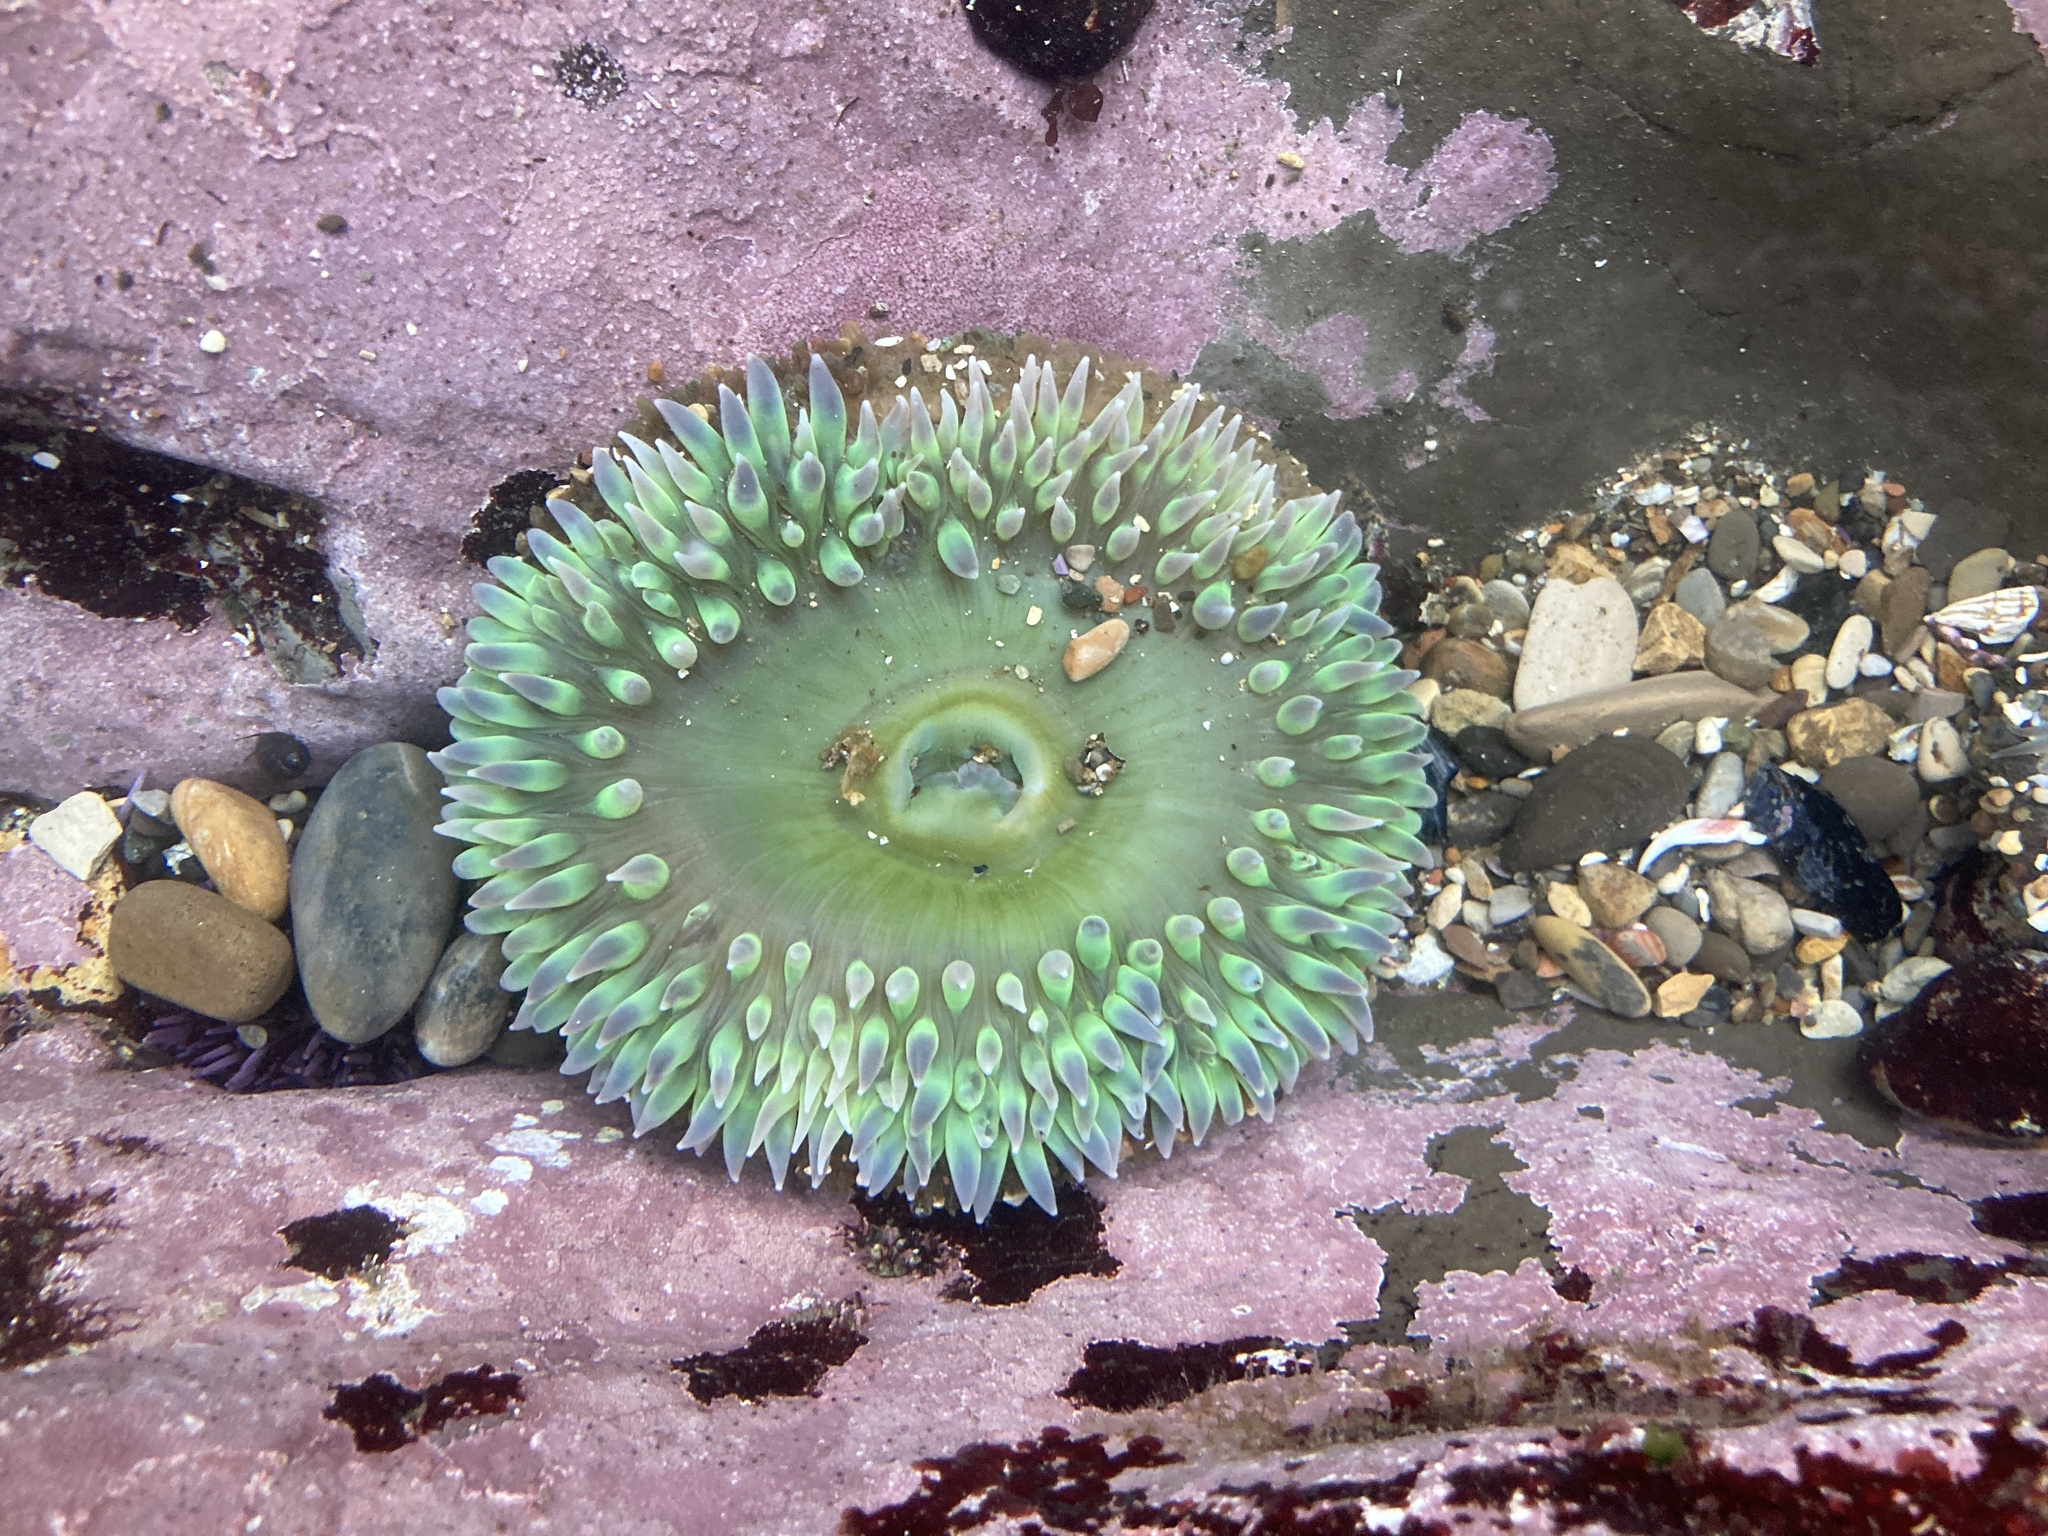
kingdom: Animalia
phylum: Cnidaria
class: Anthozoa
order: Actiniaria
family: Actiniidae
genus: Anthopleura
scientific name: Anthopleura xanthogrammica
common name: Giant green anemone
